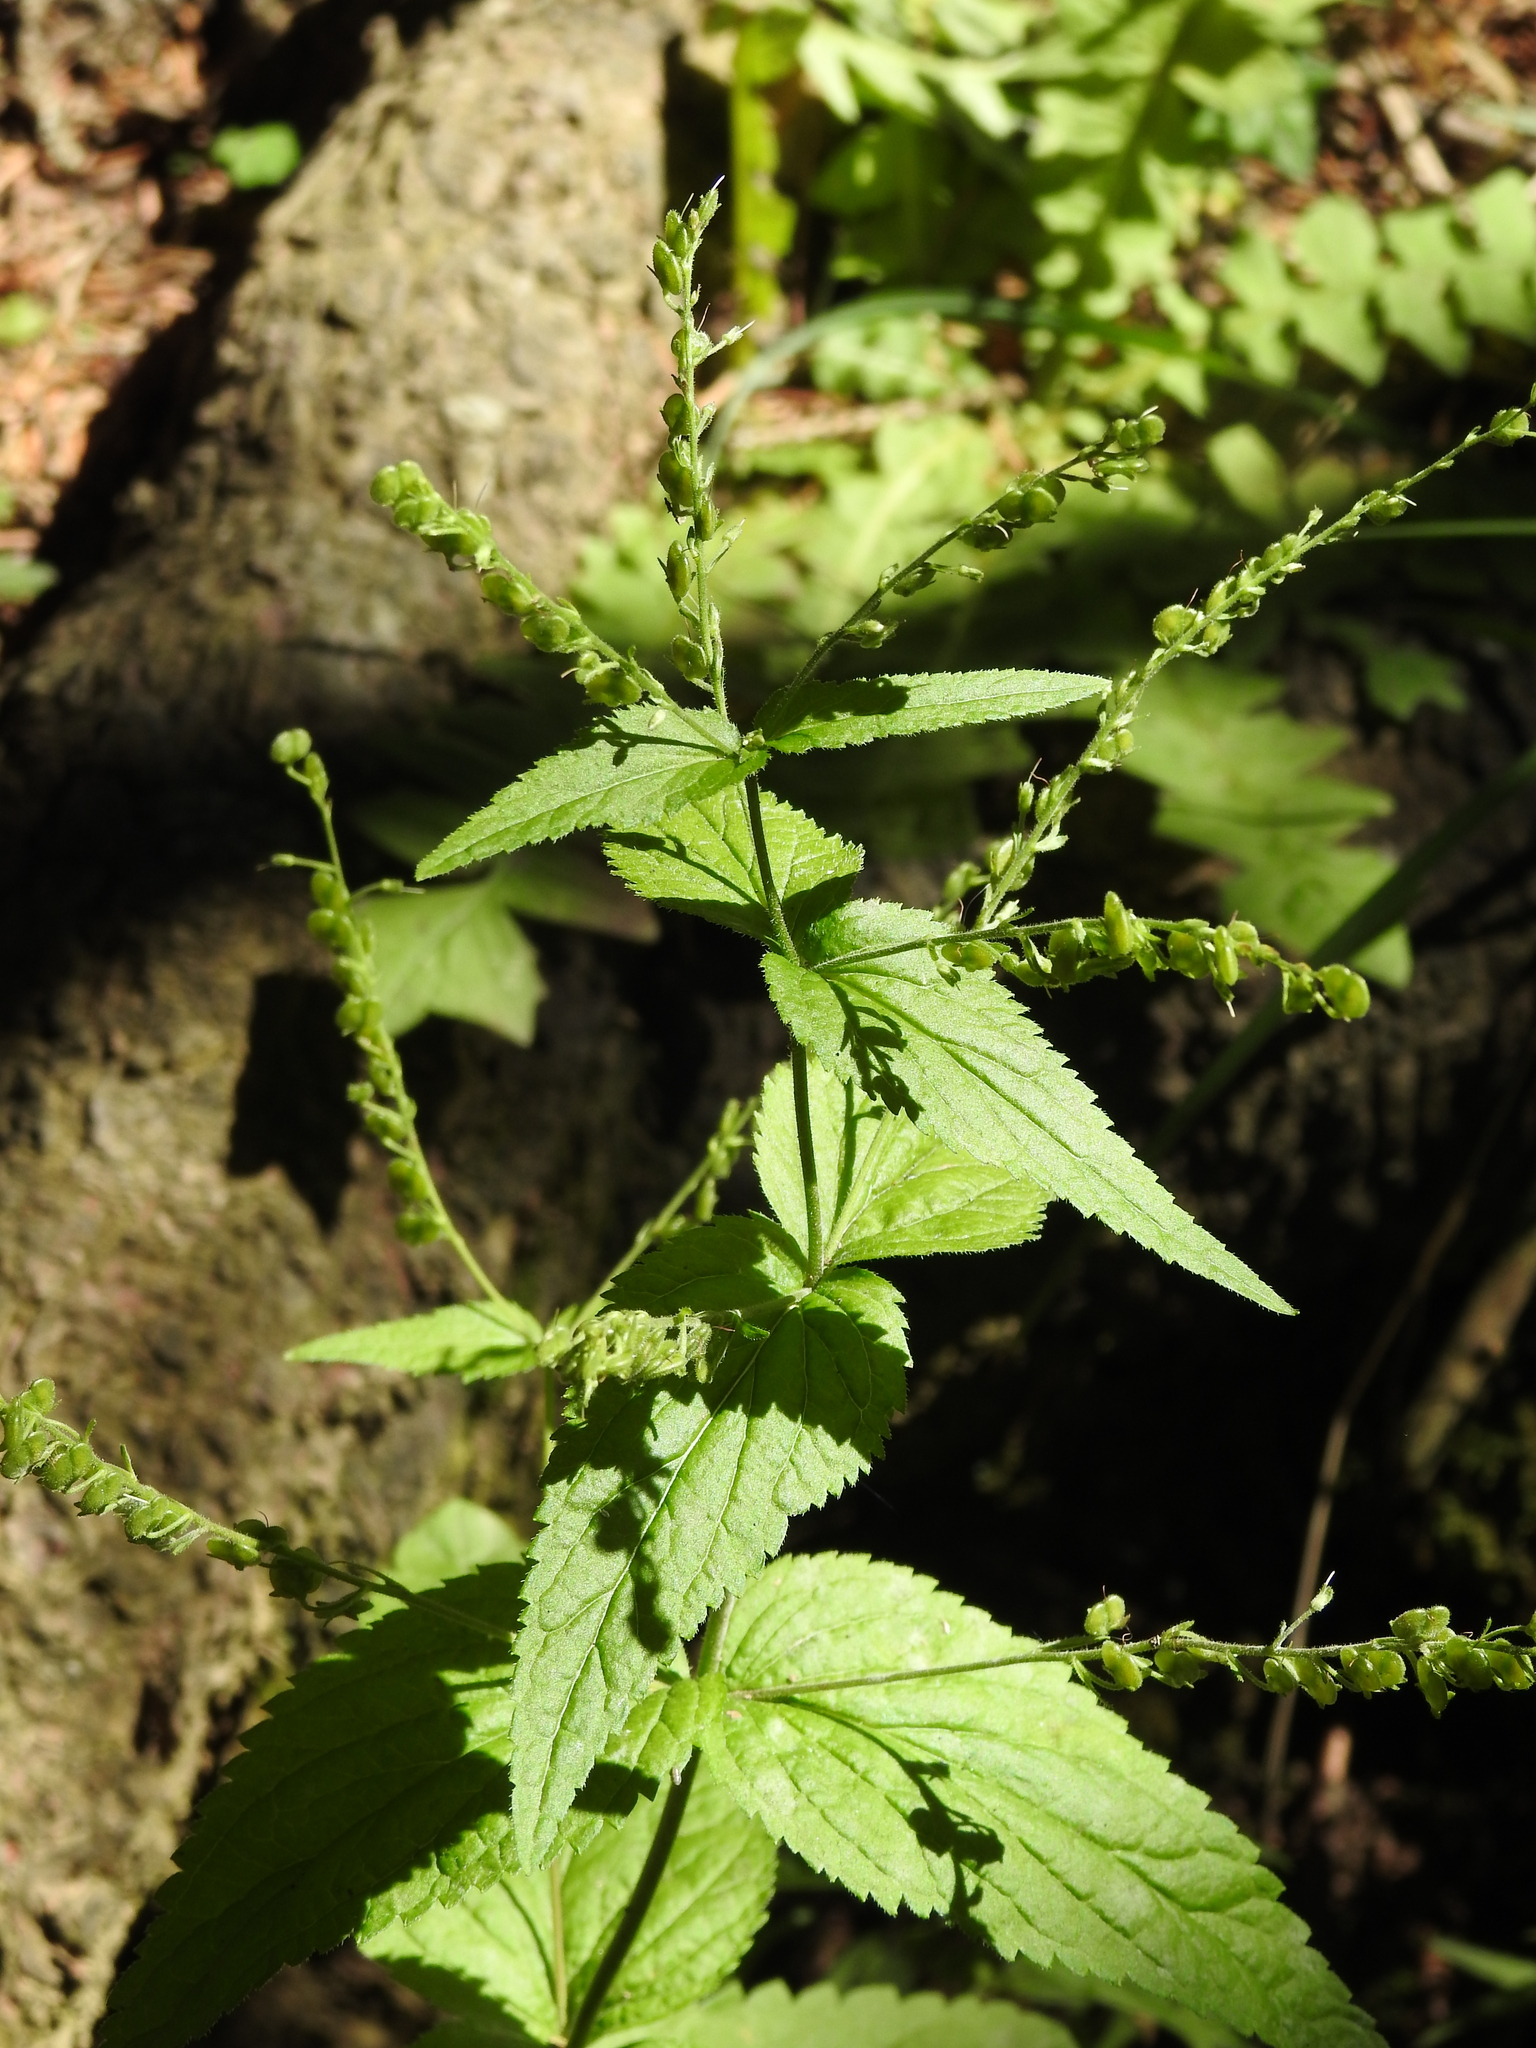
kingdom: Plantae
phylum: Tracheophyta
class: Magnoliopsida
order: Lamiales
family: Plantaginaceae
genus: Veronica
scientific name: Veronica urticifolia
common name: Nettle-leaf speedwell
